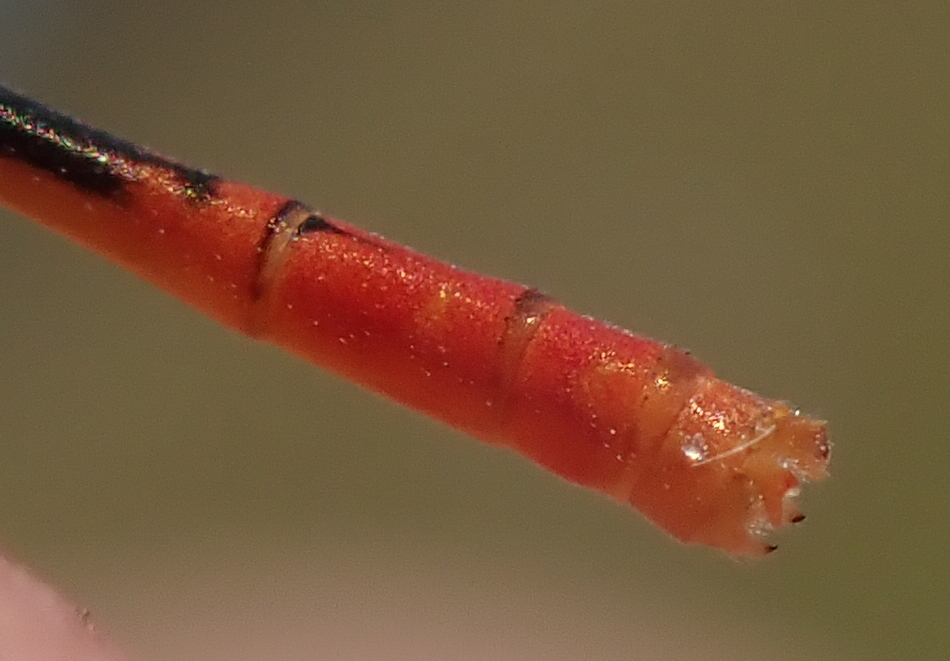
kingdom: Animalia
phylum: Arthropoda
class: Insecta
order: Odonata
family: Coenagrionidae
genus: Agriocnemis
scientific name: Agriocnemis exilis
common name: Little wisp
